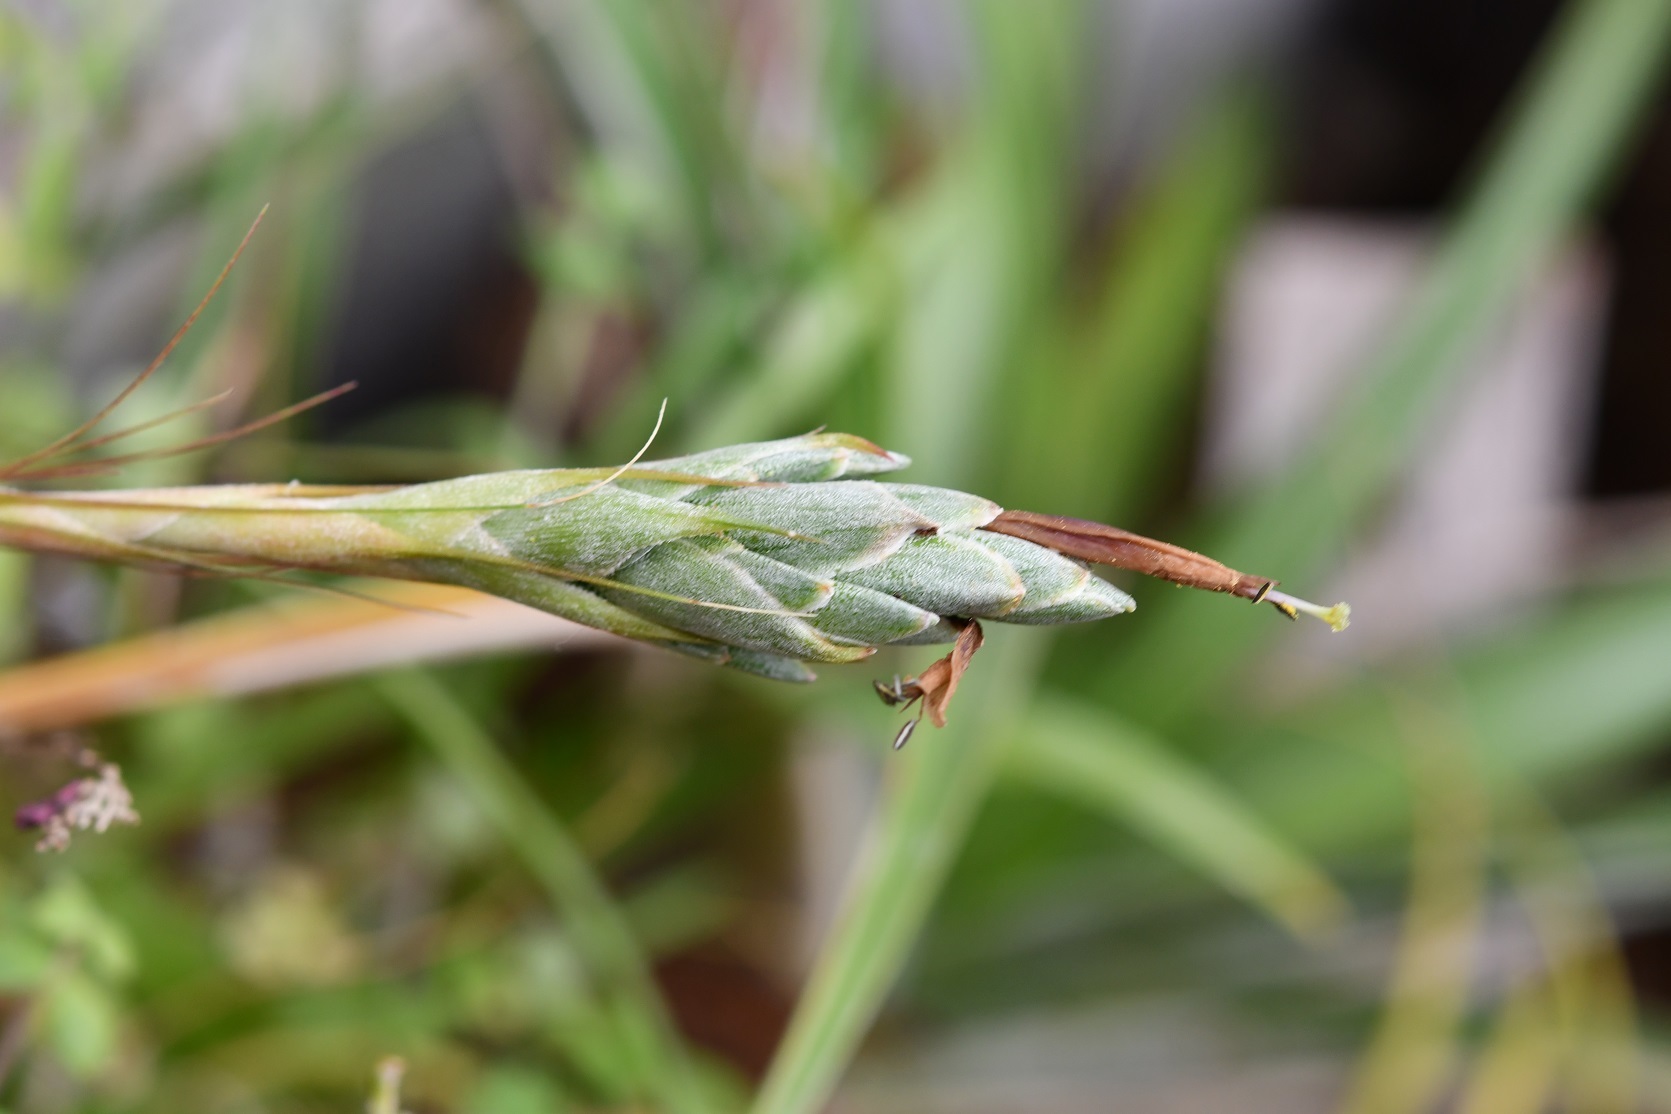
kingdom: Plantae
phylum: Tracheophyta
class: Liliopsida
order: Poales
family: Bromeliaceae
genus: Tillandsia
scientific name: Tillandsia juncea
